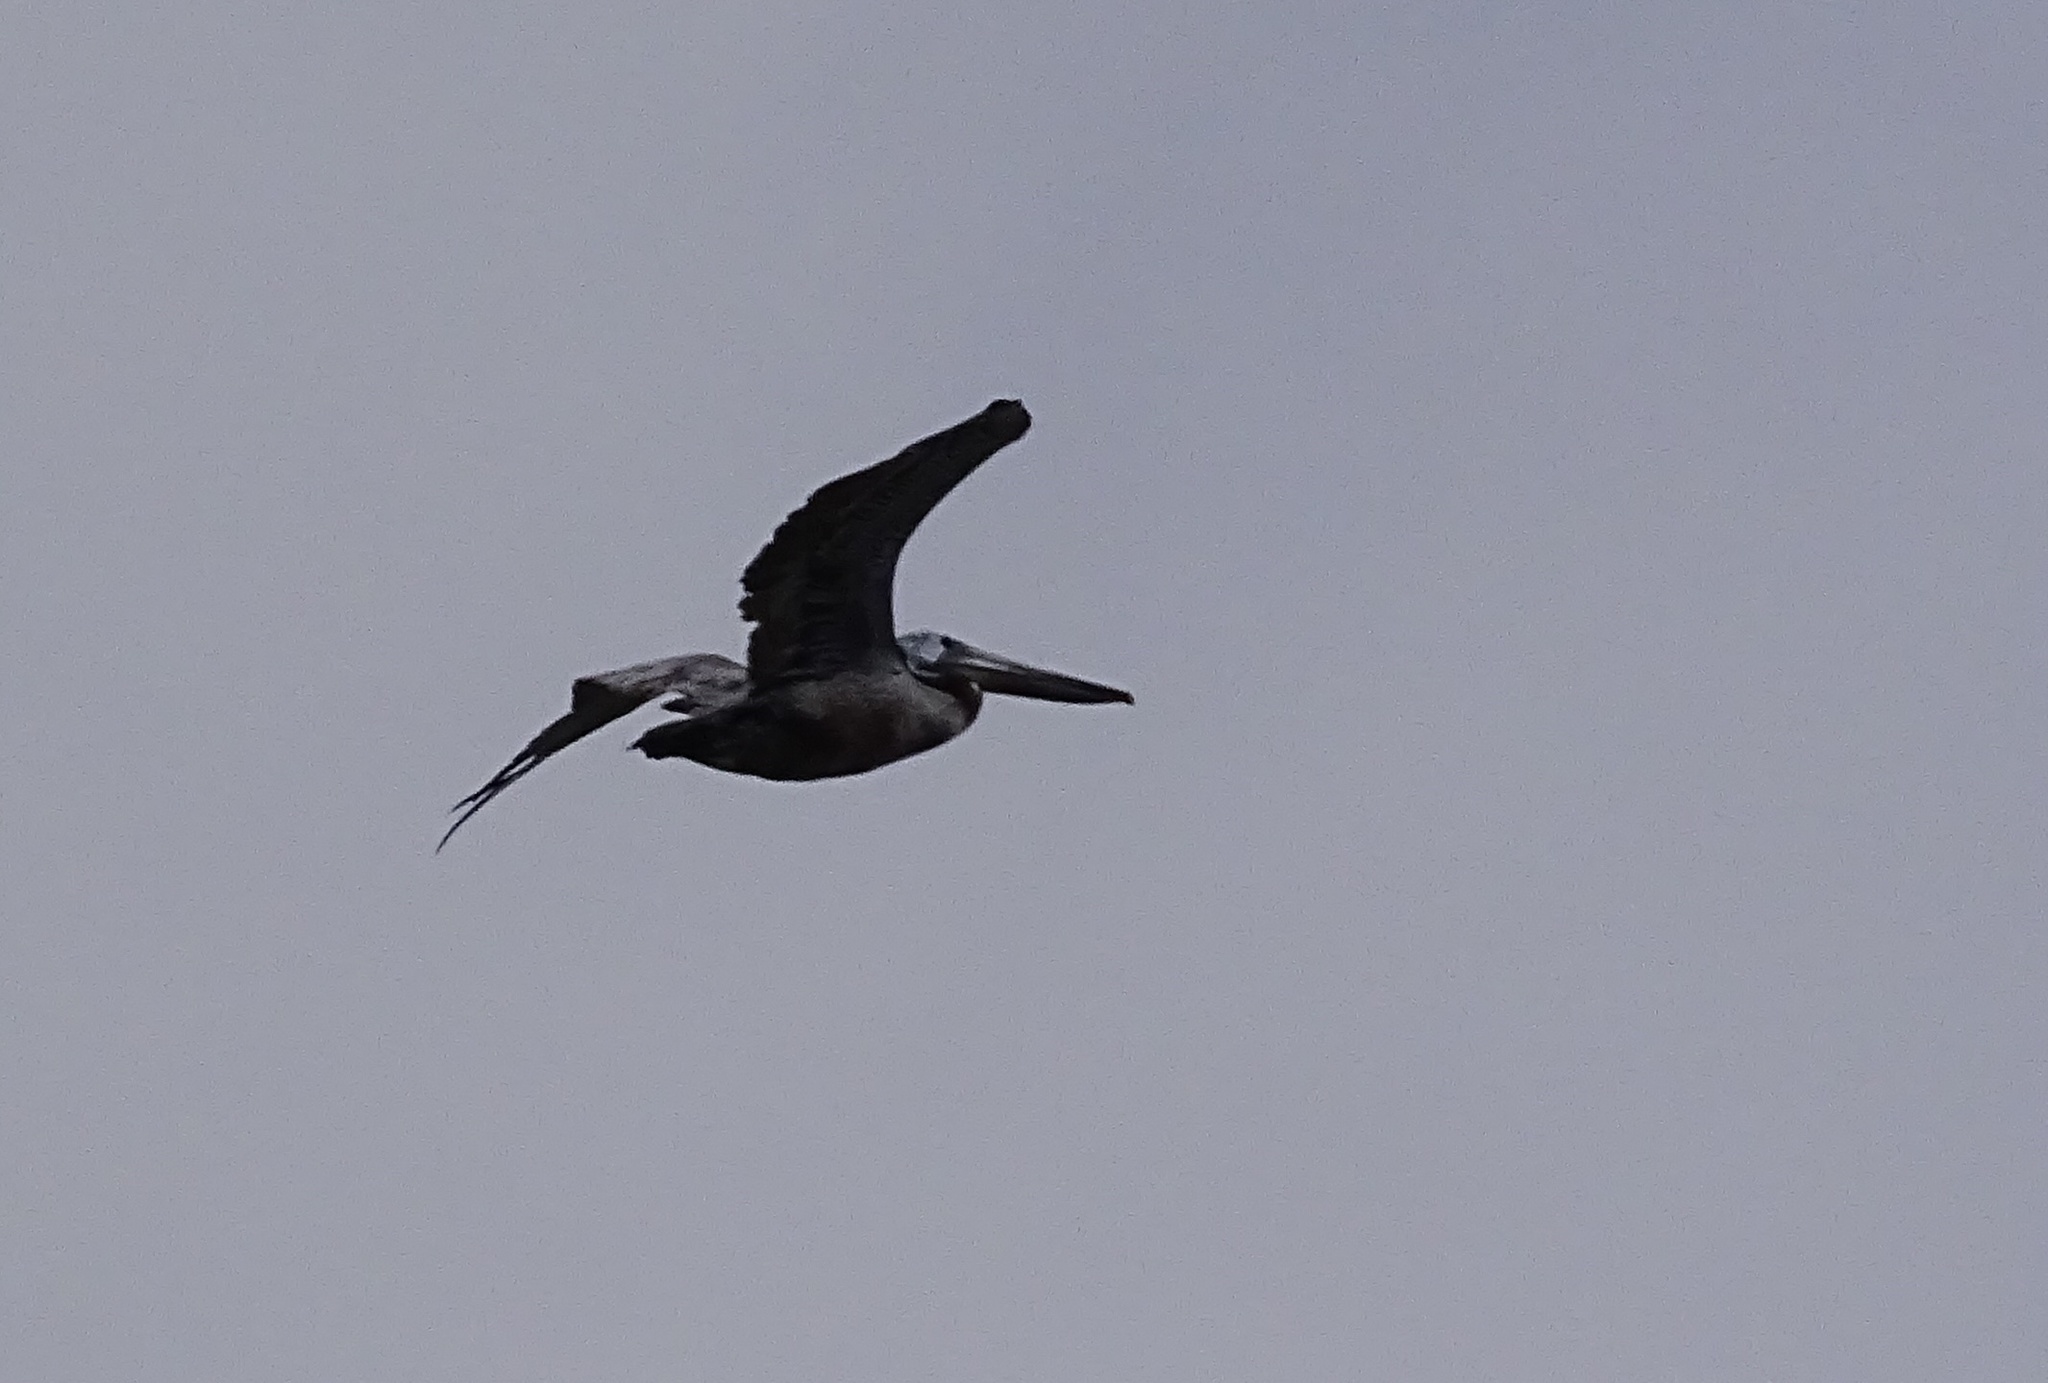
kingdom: Animalia
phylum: Chordata
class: Aves
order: Pelecaniformes
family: Pelecanidae
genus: Pelecanus
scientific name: Pelecanus occidentalis
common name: Brown pelican
